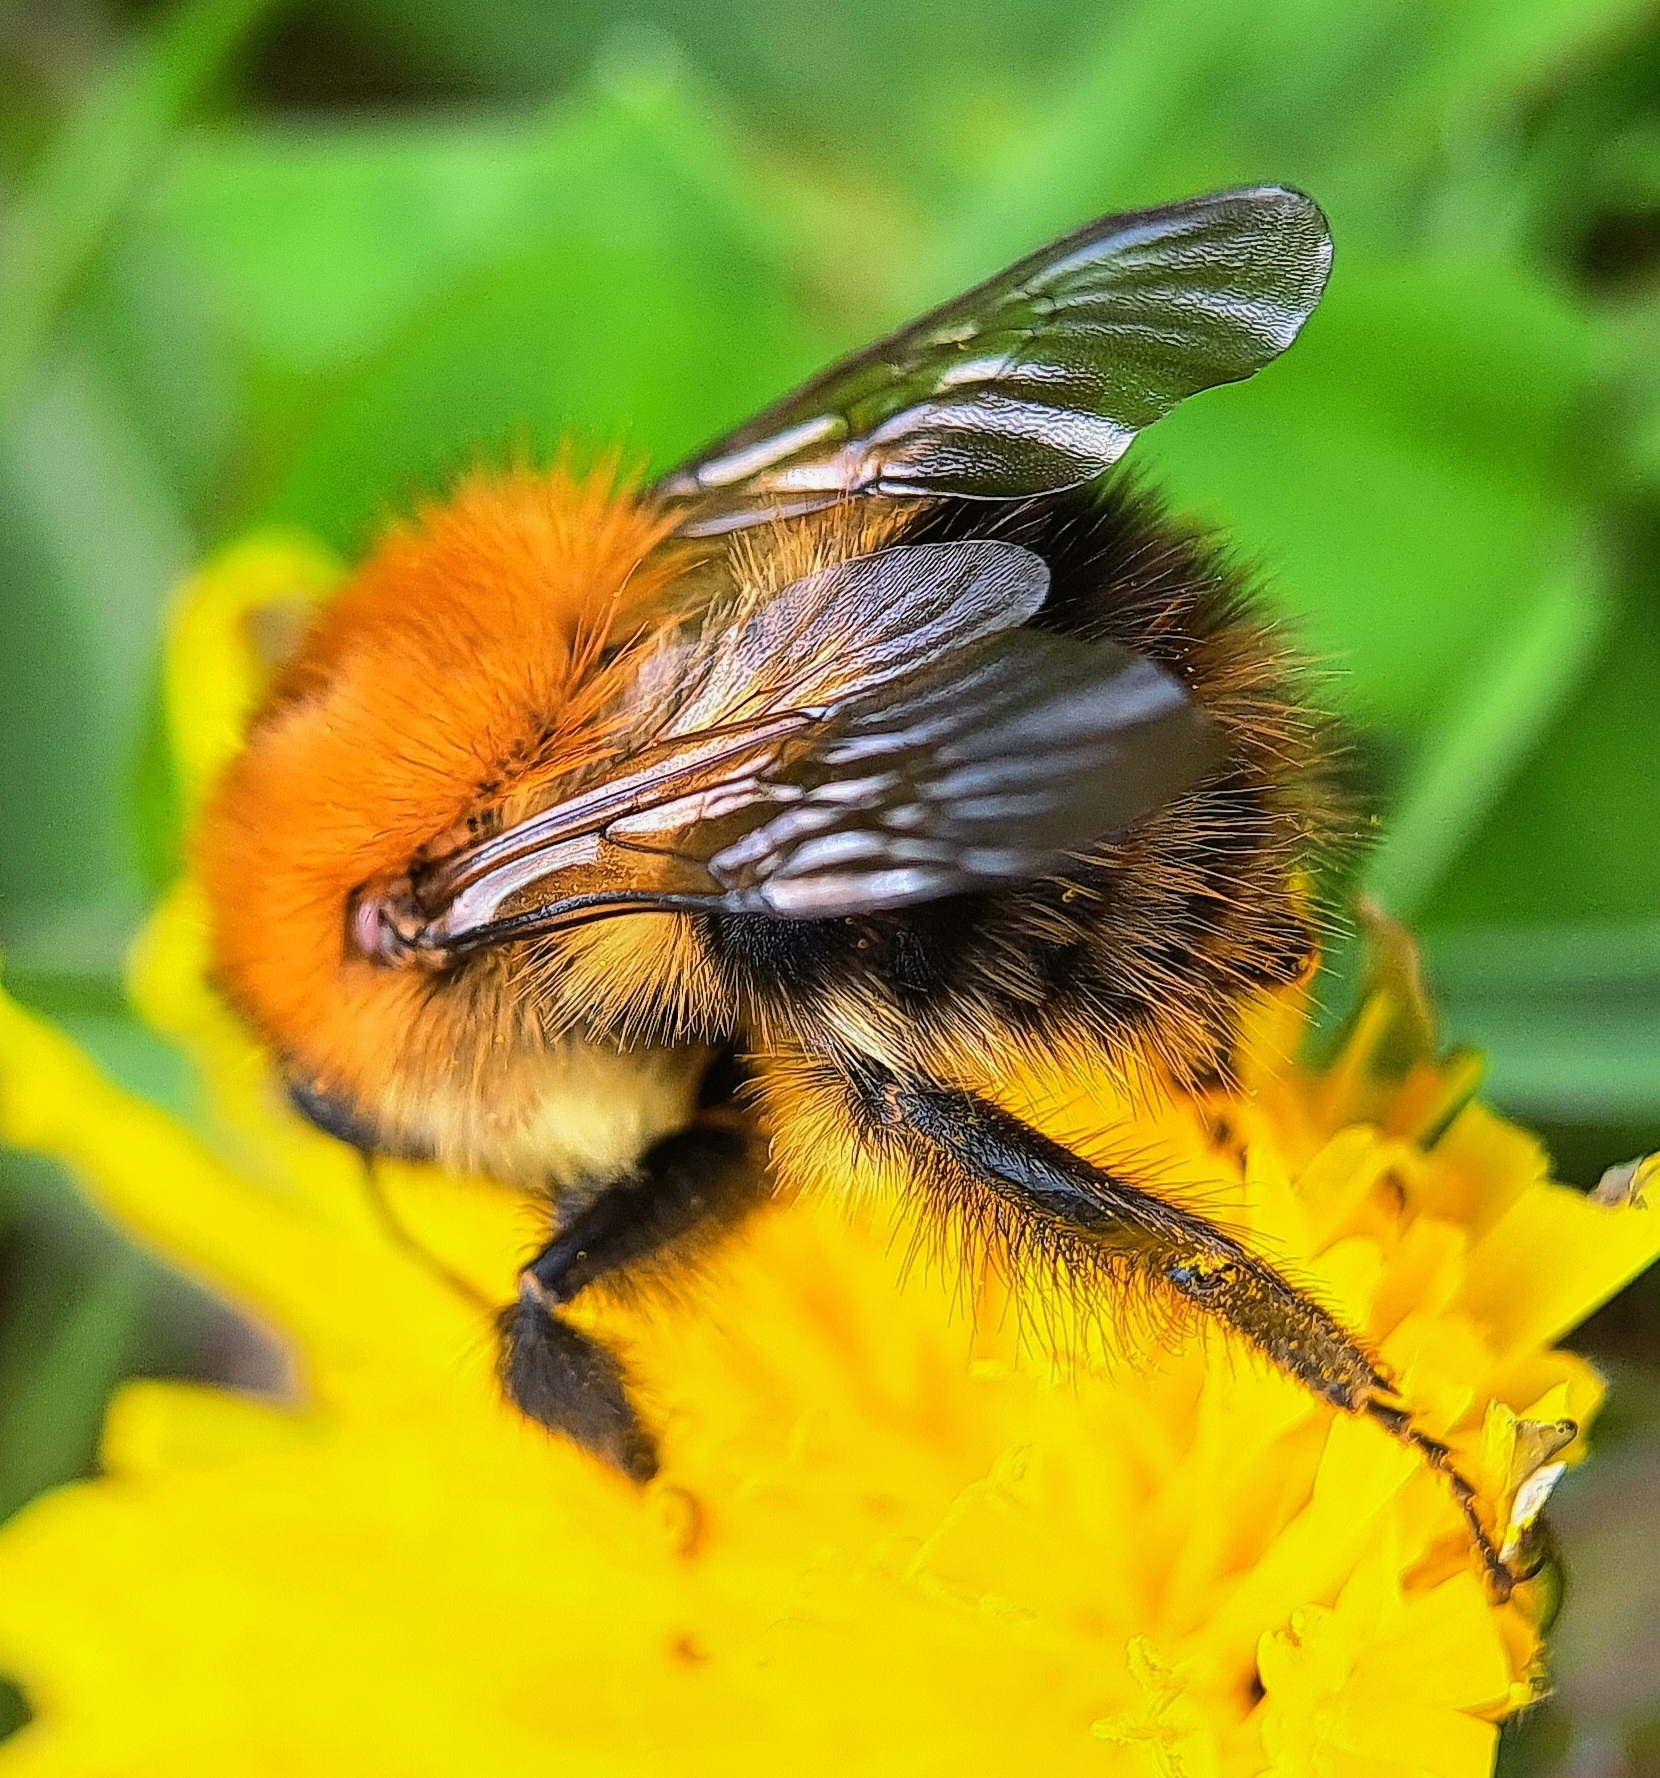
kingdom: Animalia
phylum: Arthropoda
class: Insecta
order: Hymenoptera
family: Apidae
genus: Bombus
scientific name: Bombus pascuorum
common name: Common carder bee
